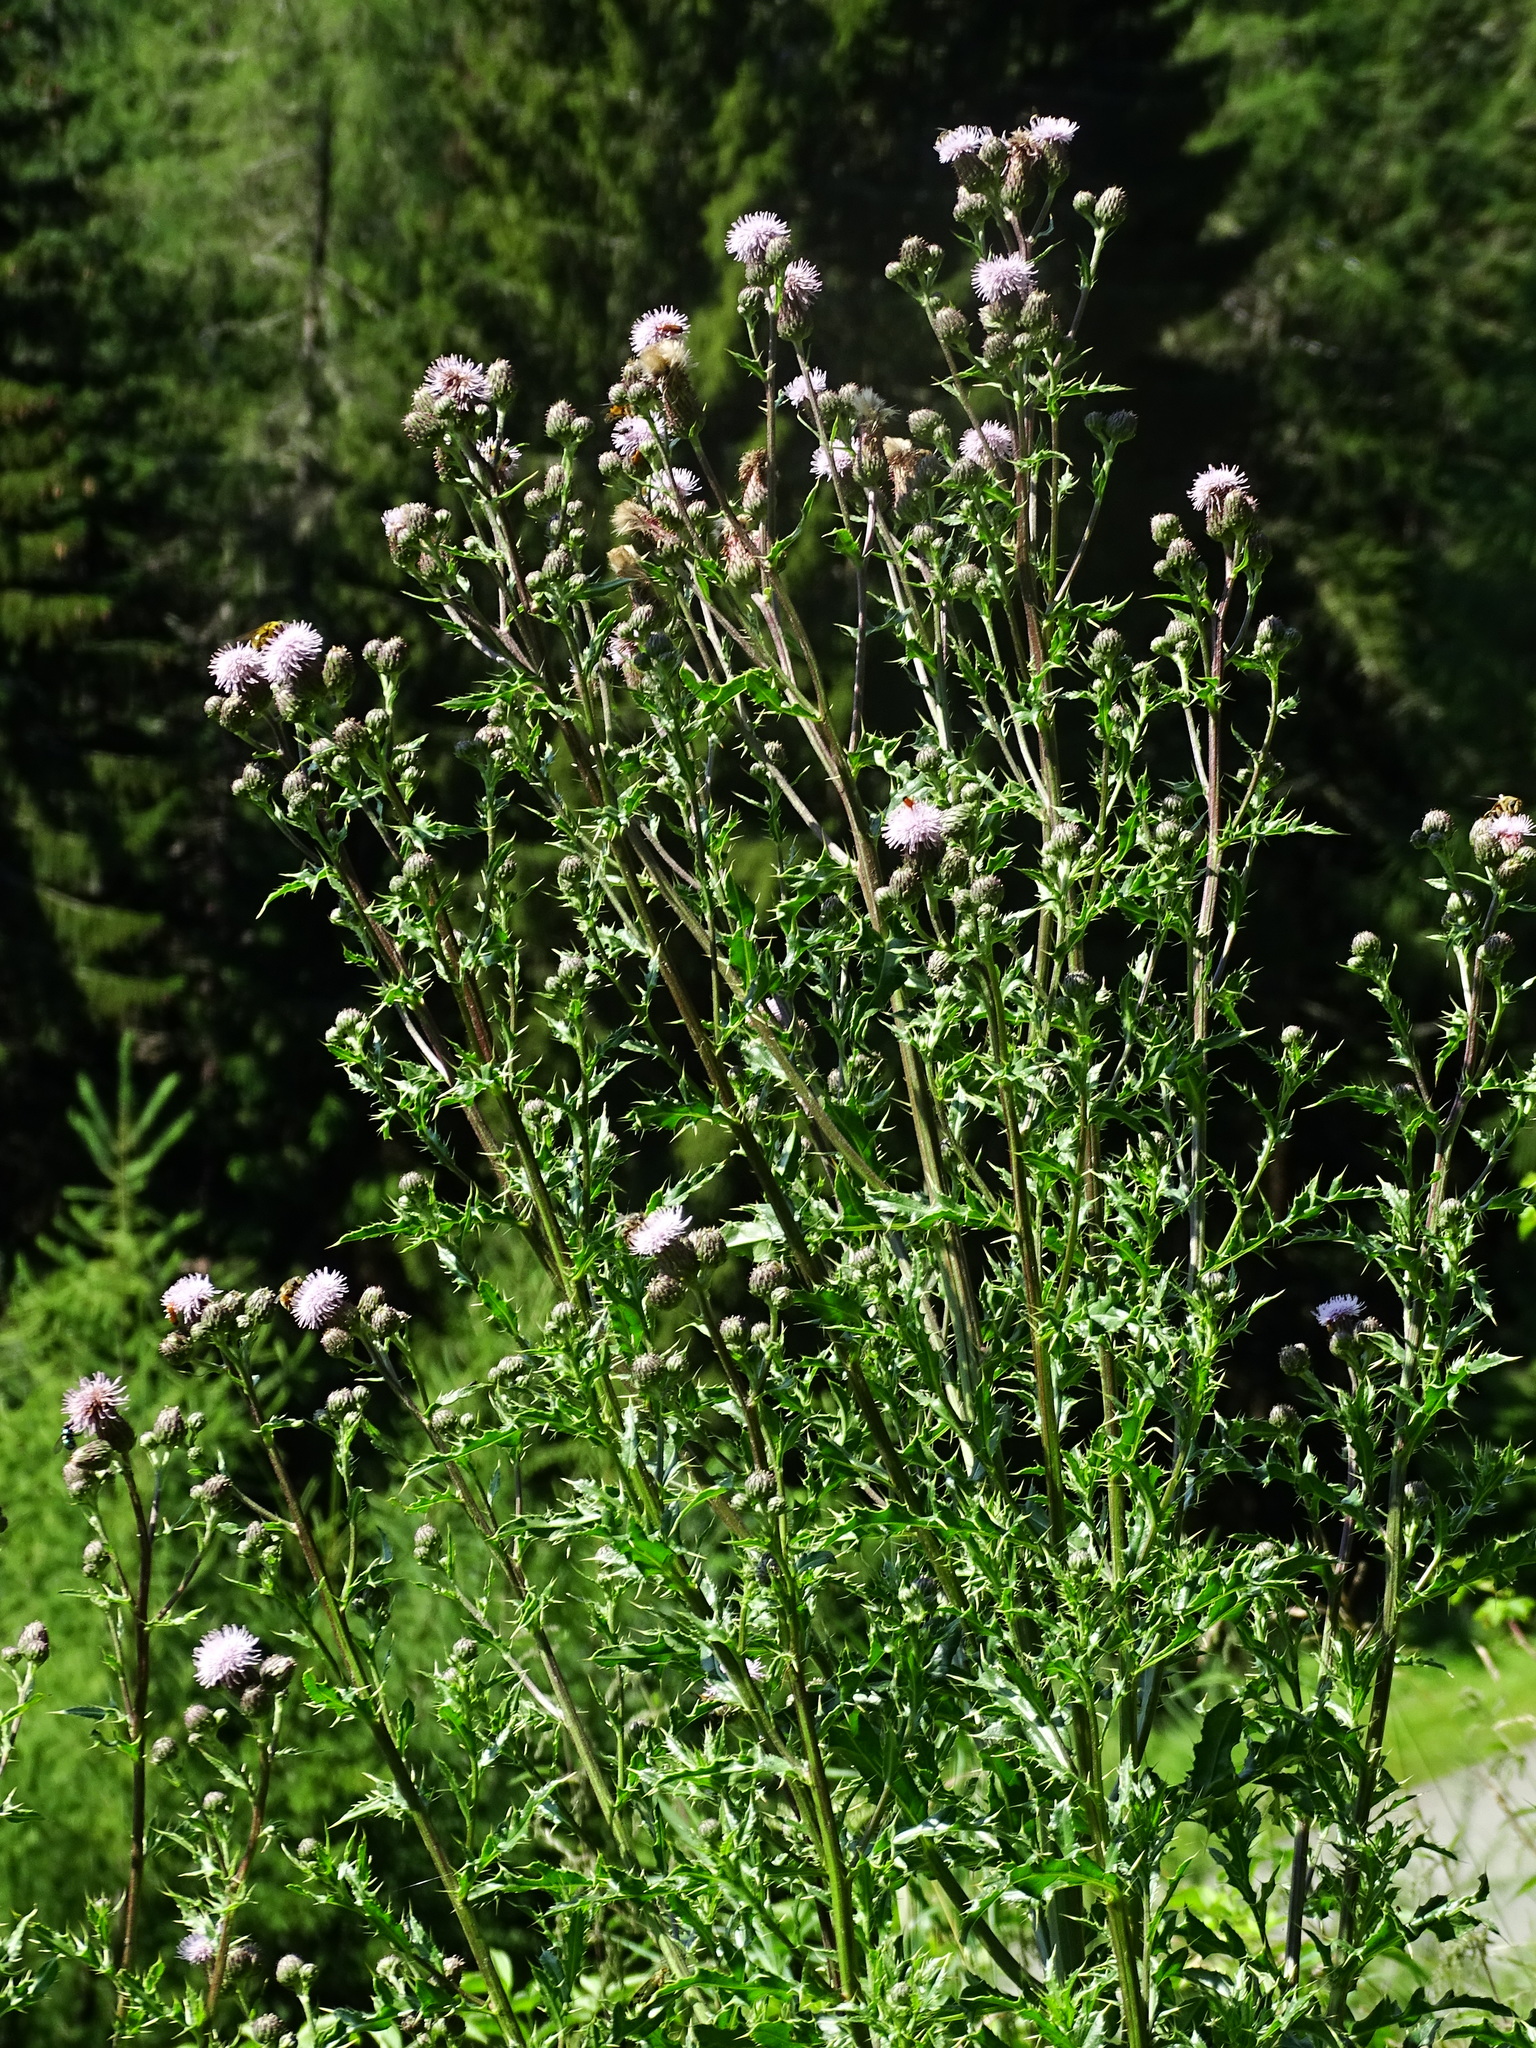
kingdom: Plantae
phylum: Tracheophyta
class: Magnoliopsida
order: Asterales
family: Asteraceae
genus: Cirsium
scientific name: Cirsium arvense
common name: Creeping thistle
